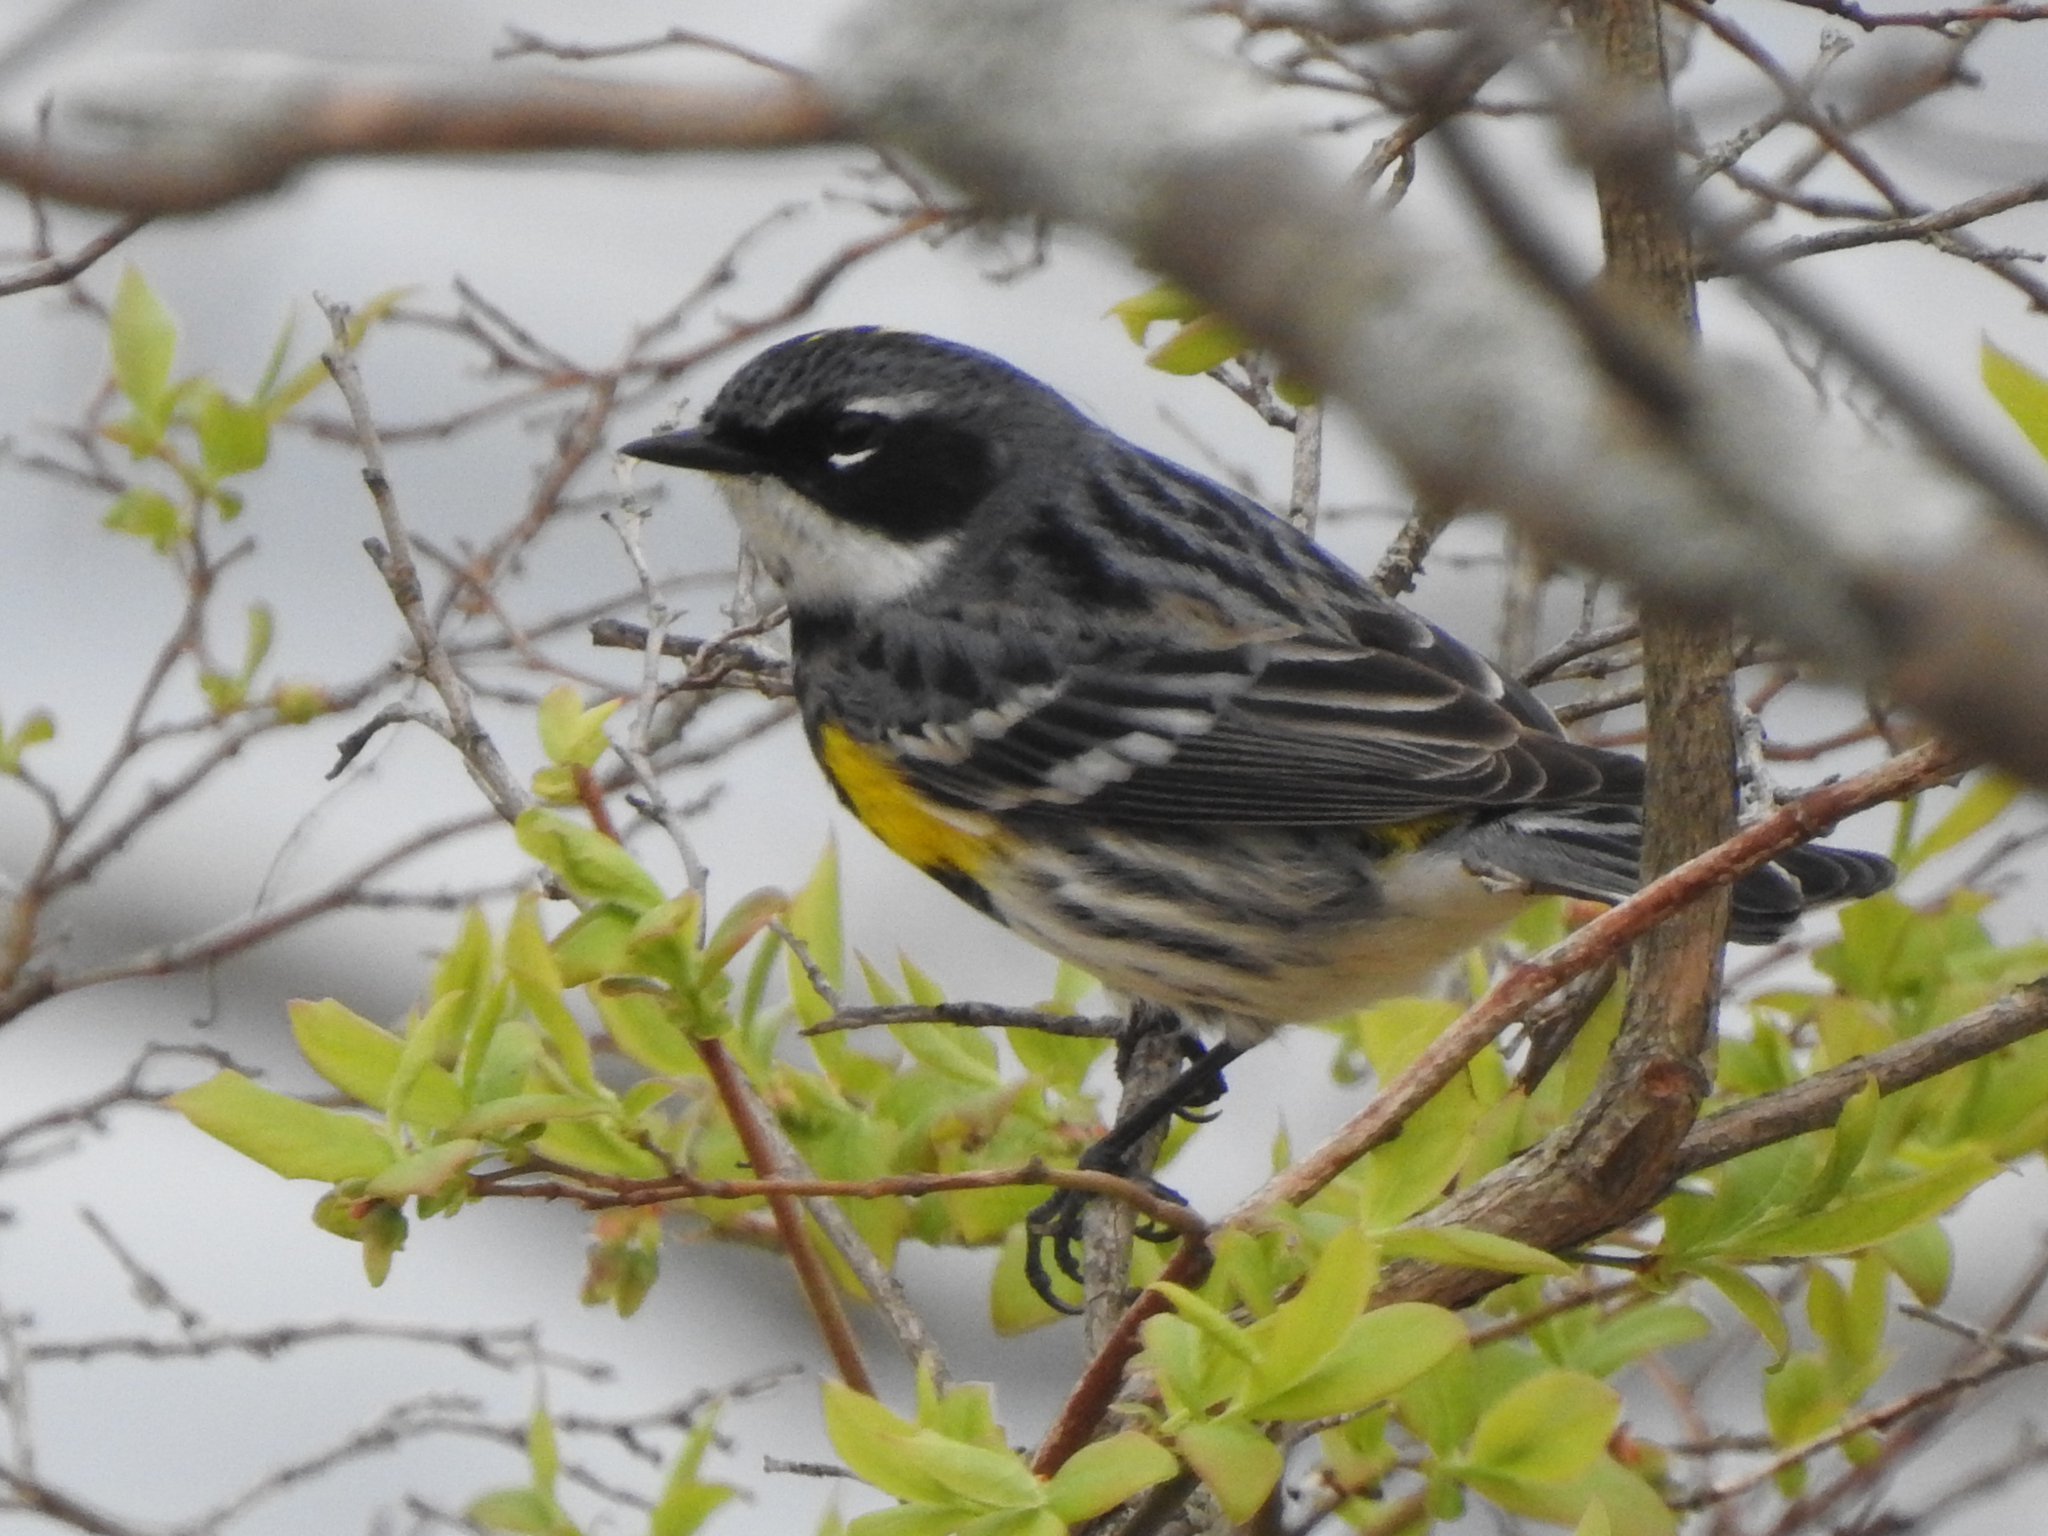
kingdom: Animalia
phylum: Chordata
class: Aves
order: Passeriformes
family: Parulidae
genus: Setophaga
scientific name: Setophaga coronata
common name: Myrtle warbler
